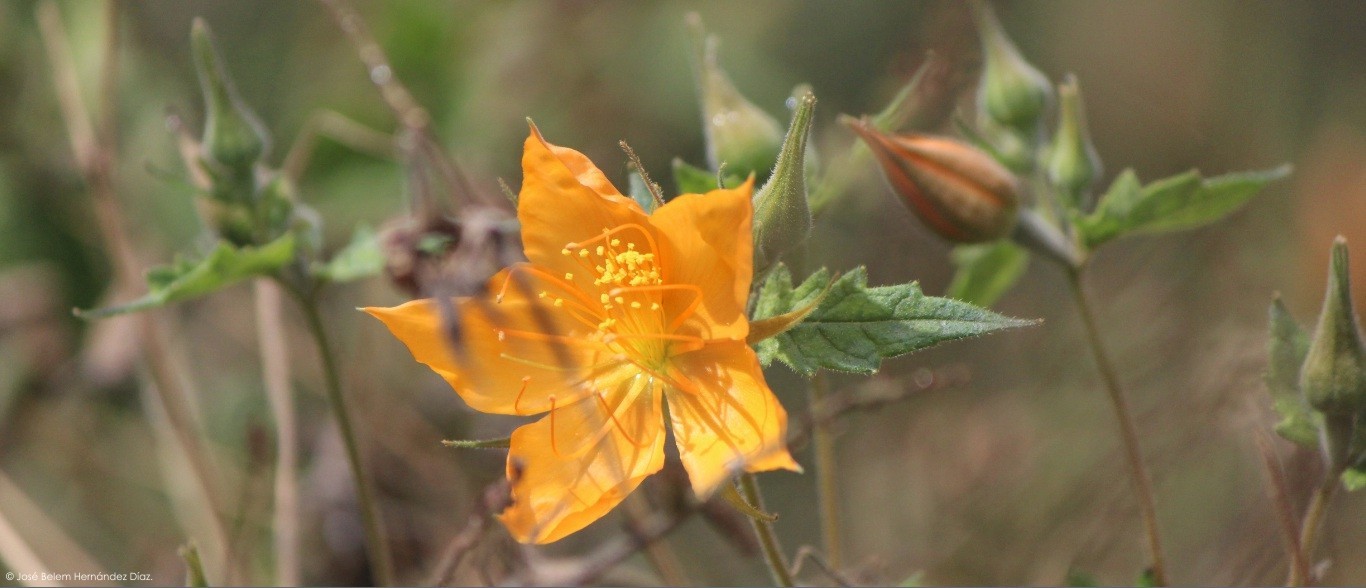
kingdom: Plantae
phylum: Tracheophyta
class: Magnoliopsida
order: Cornales
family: Loasaceae
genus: Mentzelia
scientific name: Mentzelia hispida
